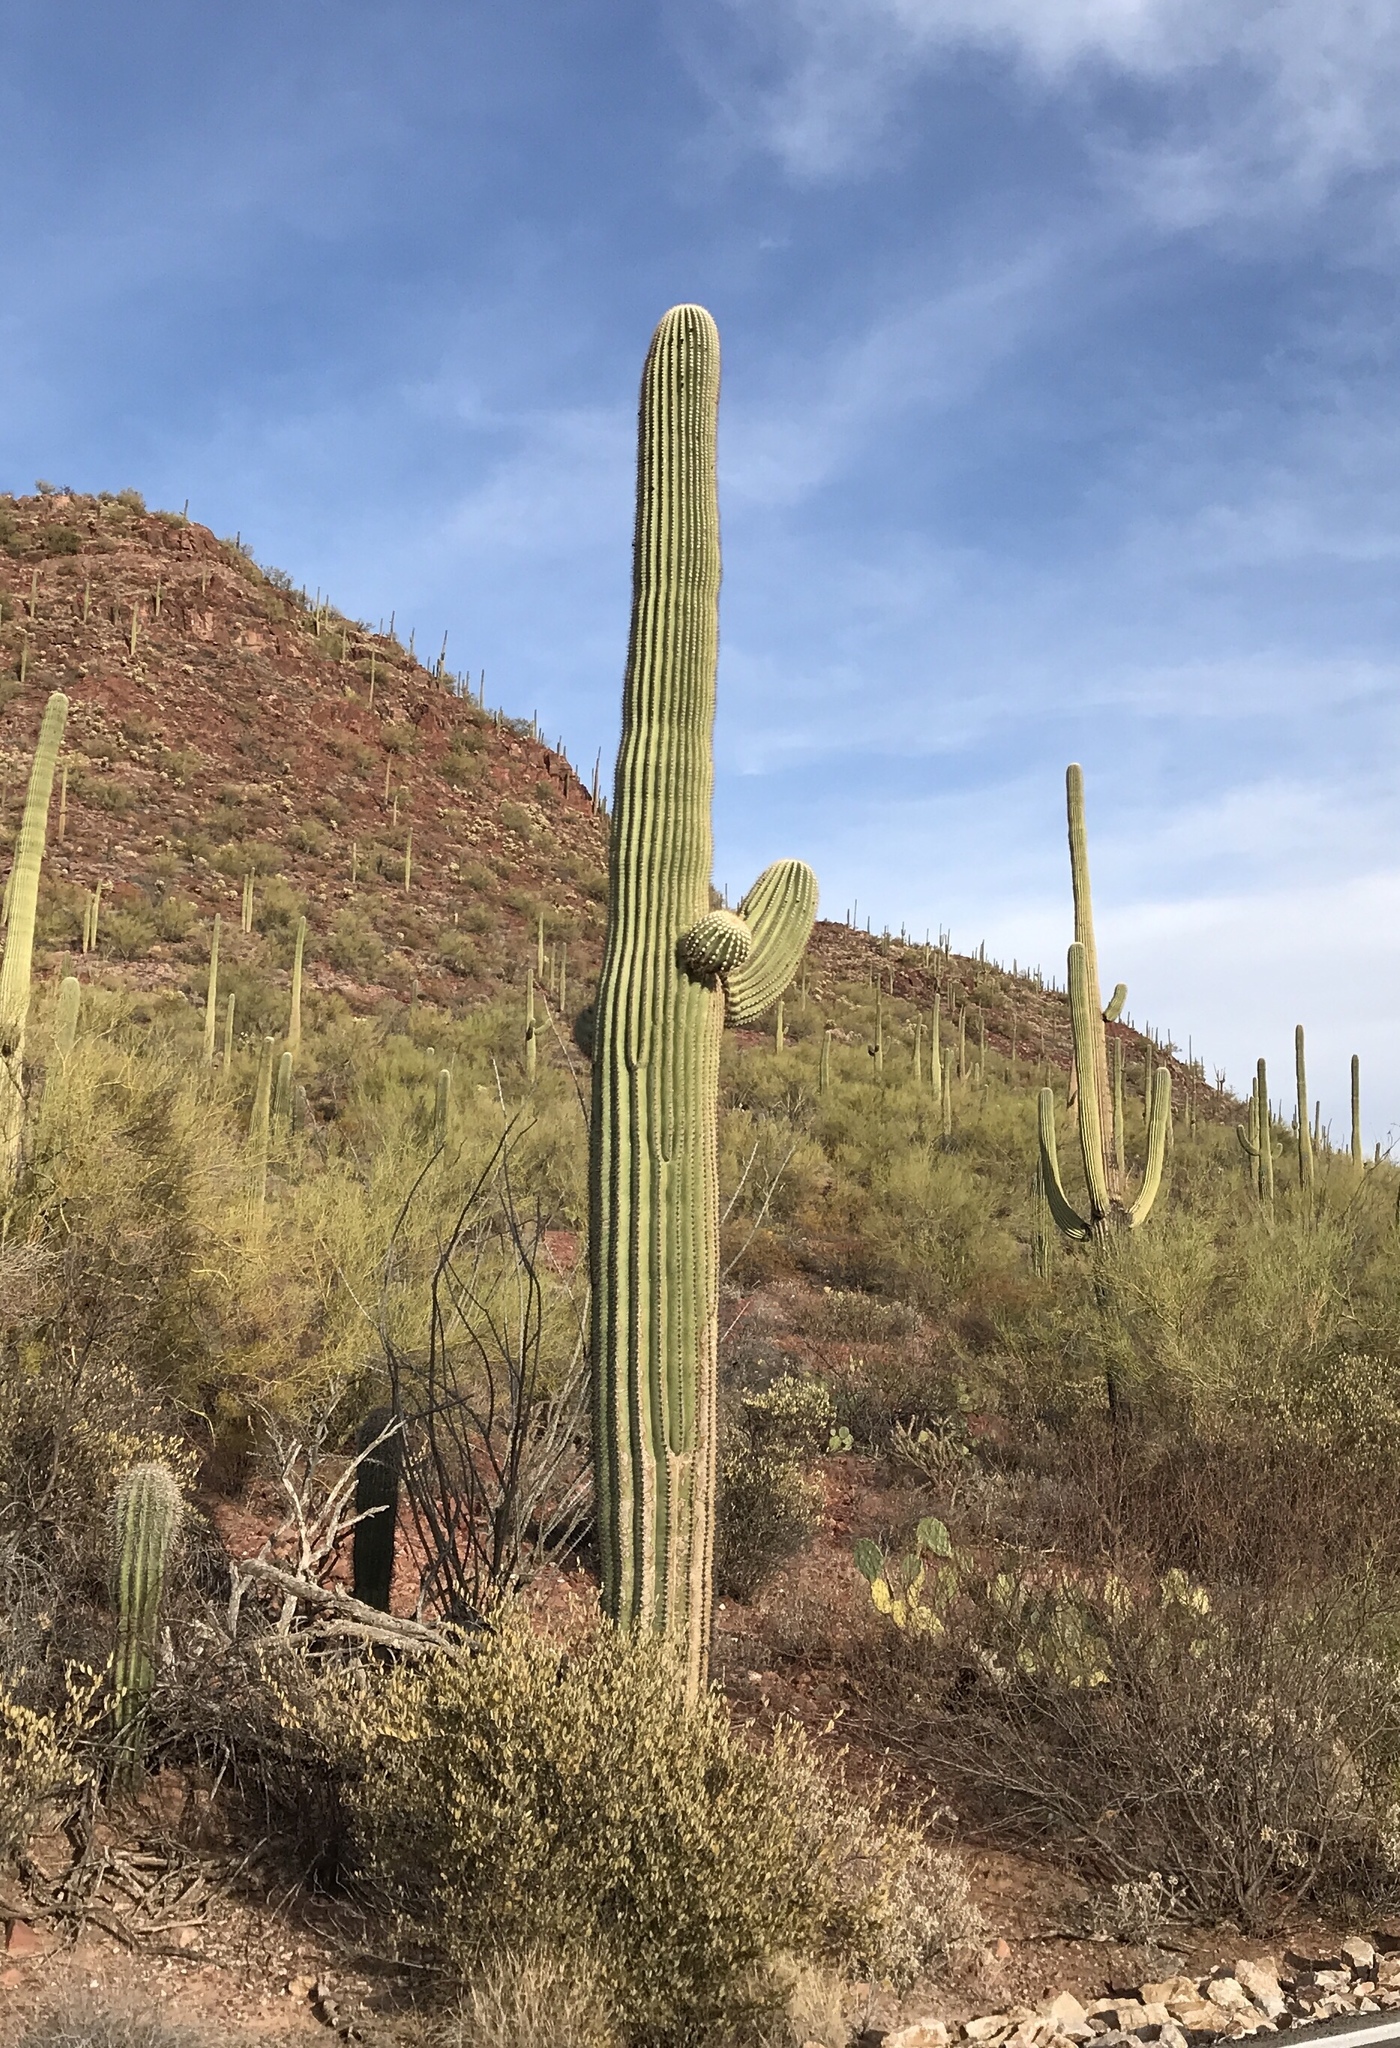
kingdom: Plantae
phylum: Tracheophyta
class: Magnoliopsida
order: Caryophyllales
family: Cactaceae
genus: Carnegiea
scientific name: Carnegiea gigantea
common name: Saguaro
